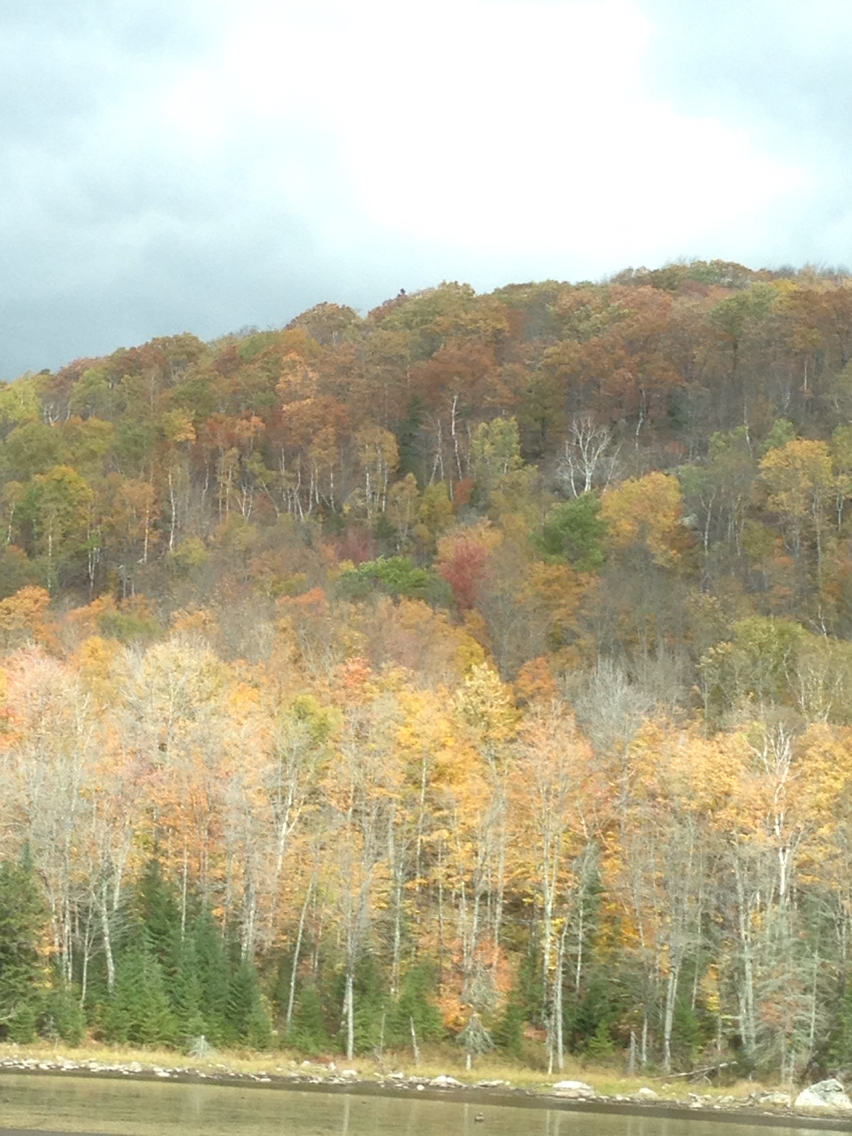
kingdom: Plantae
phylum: Tracheophyta
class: Magnoliopsida
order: Fagales
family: Fagaceae
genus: Quercus
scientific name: Quercus rubra
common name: Red oak
